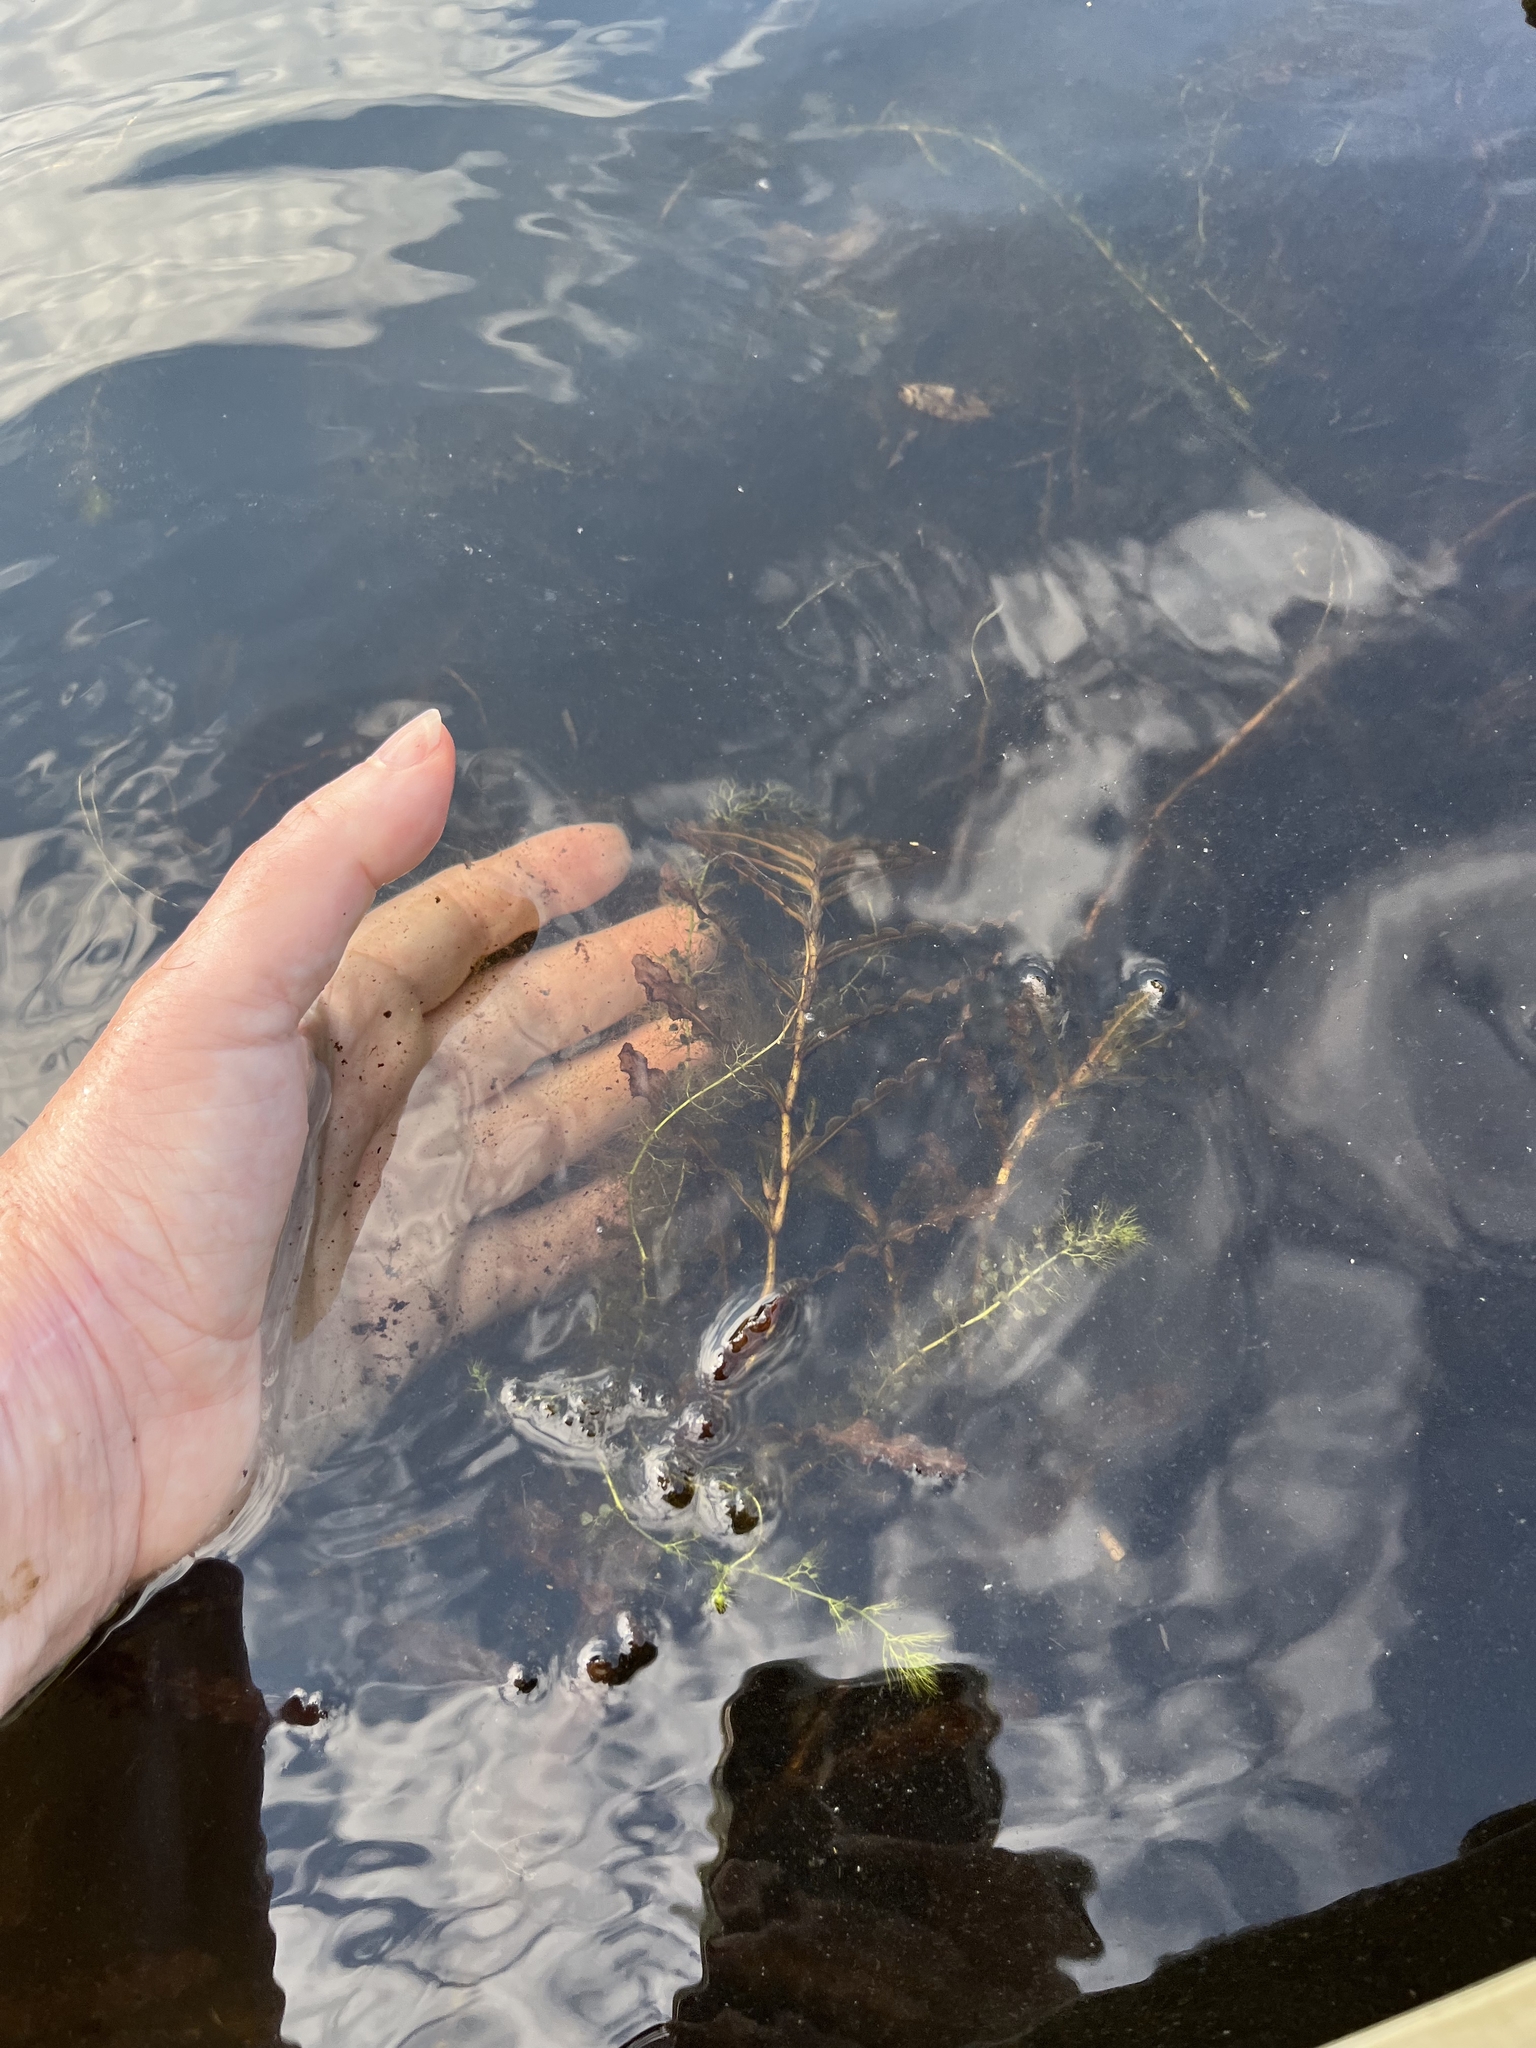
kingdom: Plantae
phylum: Tracheophyta
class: Liliopsida
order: Alismatales
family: Potamogetonaceae
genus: Potamogeton
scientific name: Potamogeton crispus
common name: Curled pondweed
